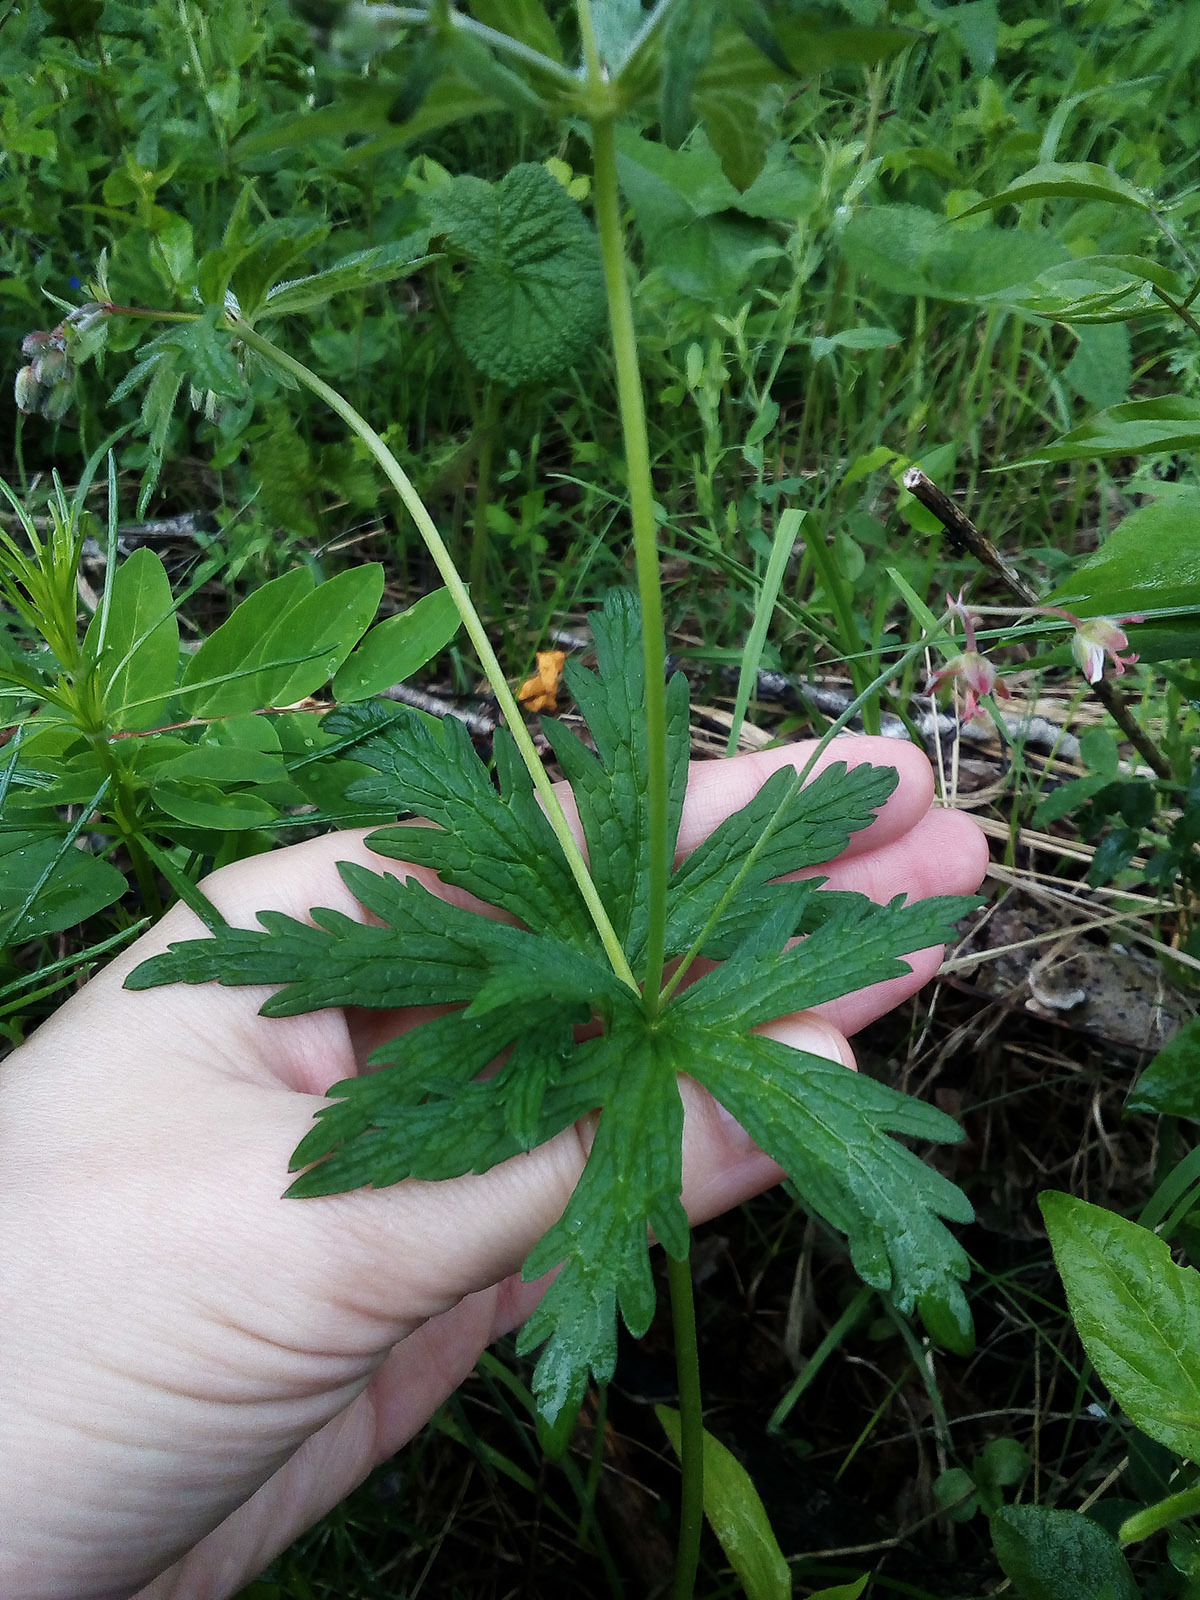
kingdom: Plantae
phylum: Tracheophyta
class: Magnoliopsida
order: Geraniales
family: Geraniaceae
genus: Geranium
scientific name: Geranium sibiricum
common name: Siberian crane's-bill
